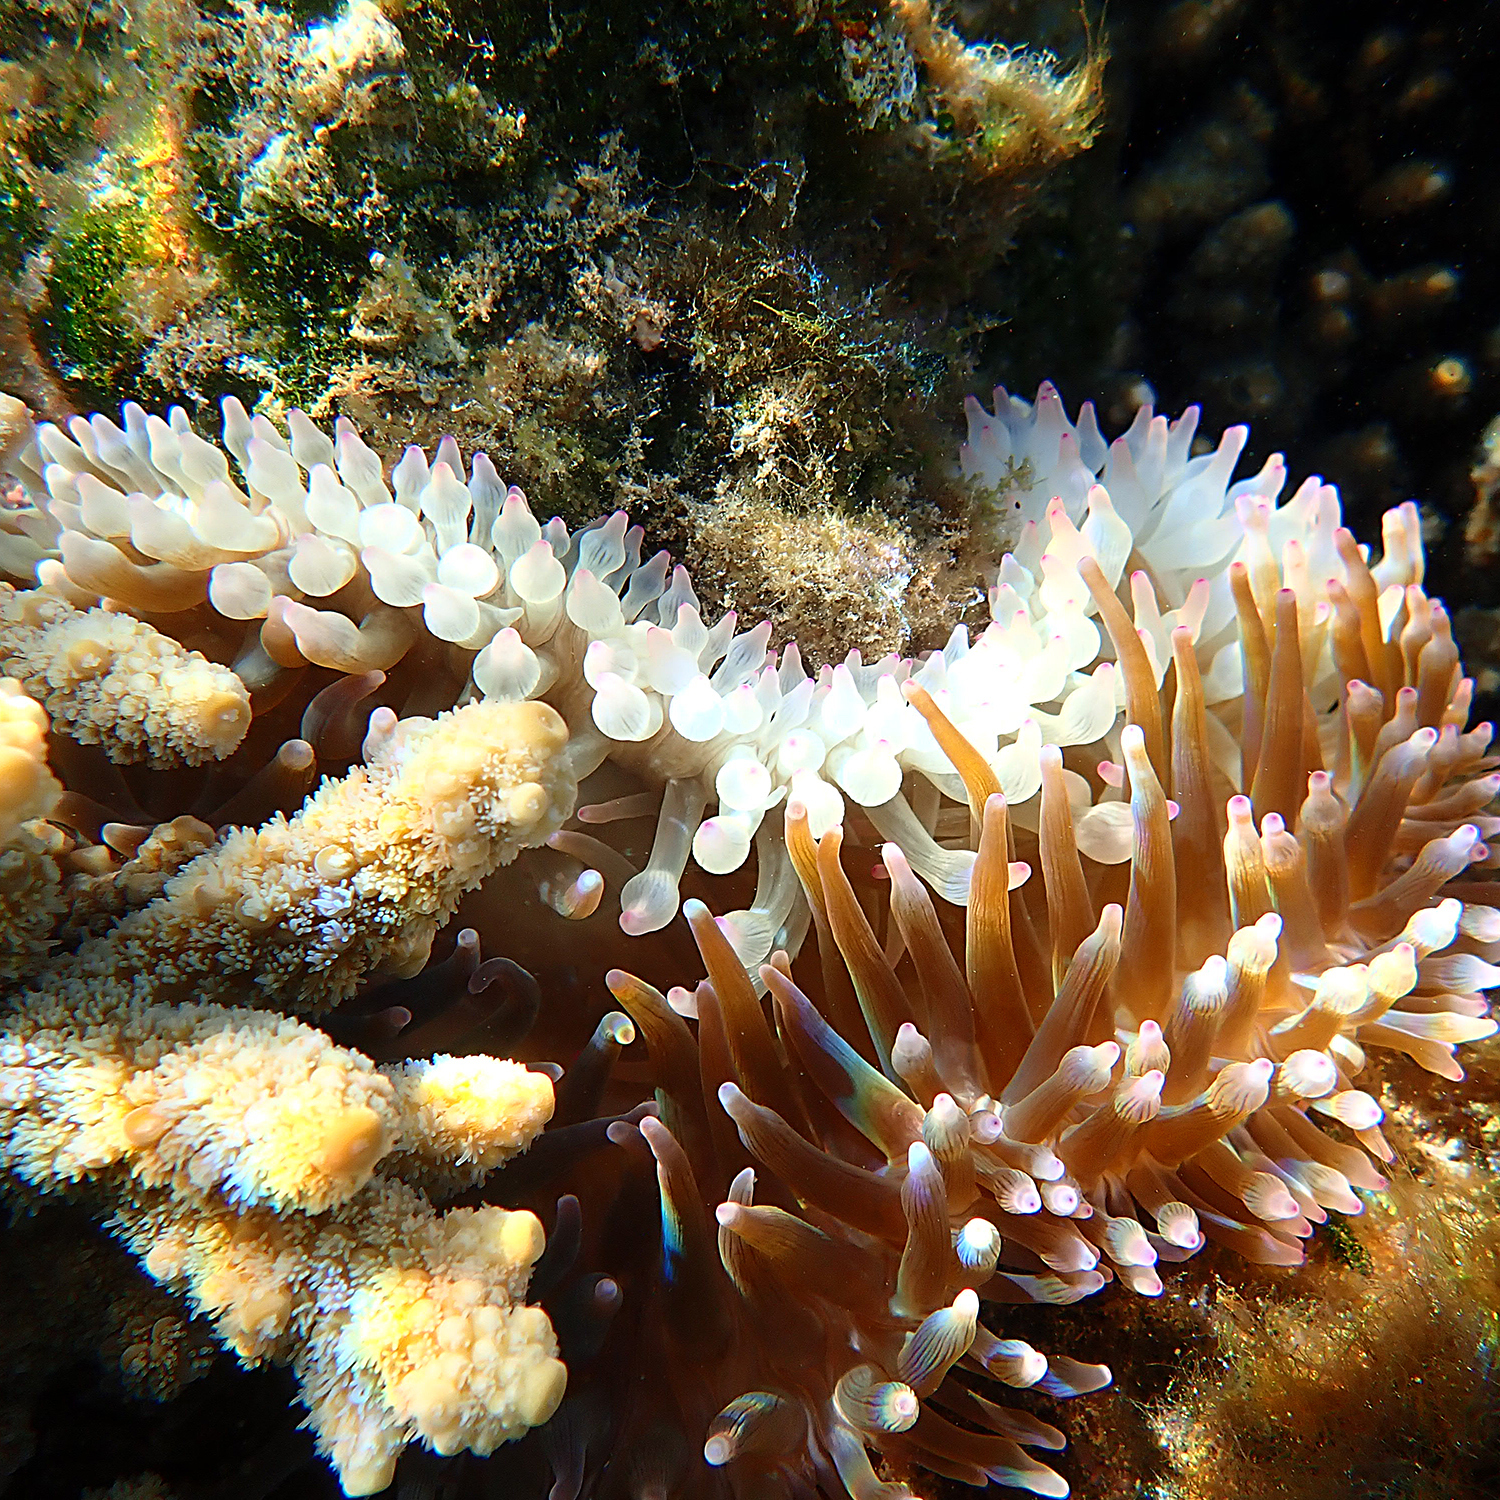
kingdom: Animalia
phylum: Cnidaria
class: Anthozoa
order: Actiniaria
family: Actiniidae
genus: Entacmaea
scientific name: Entacmaea quadricolor
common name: Bulb tentacle sea anemone
